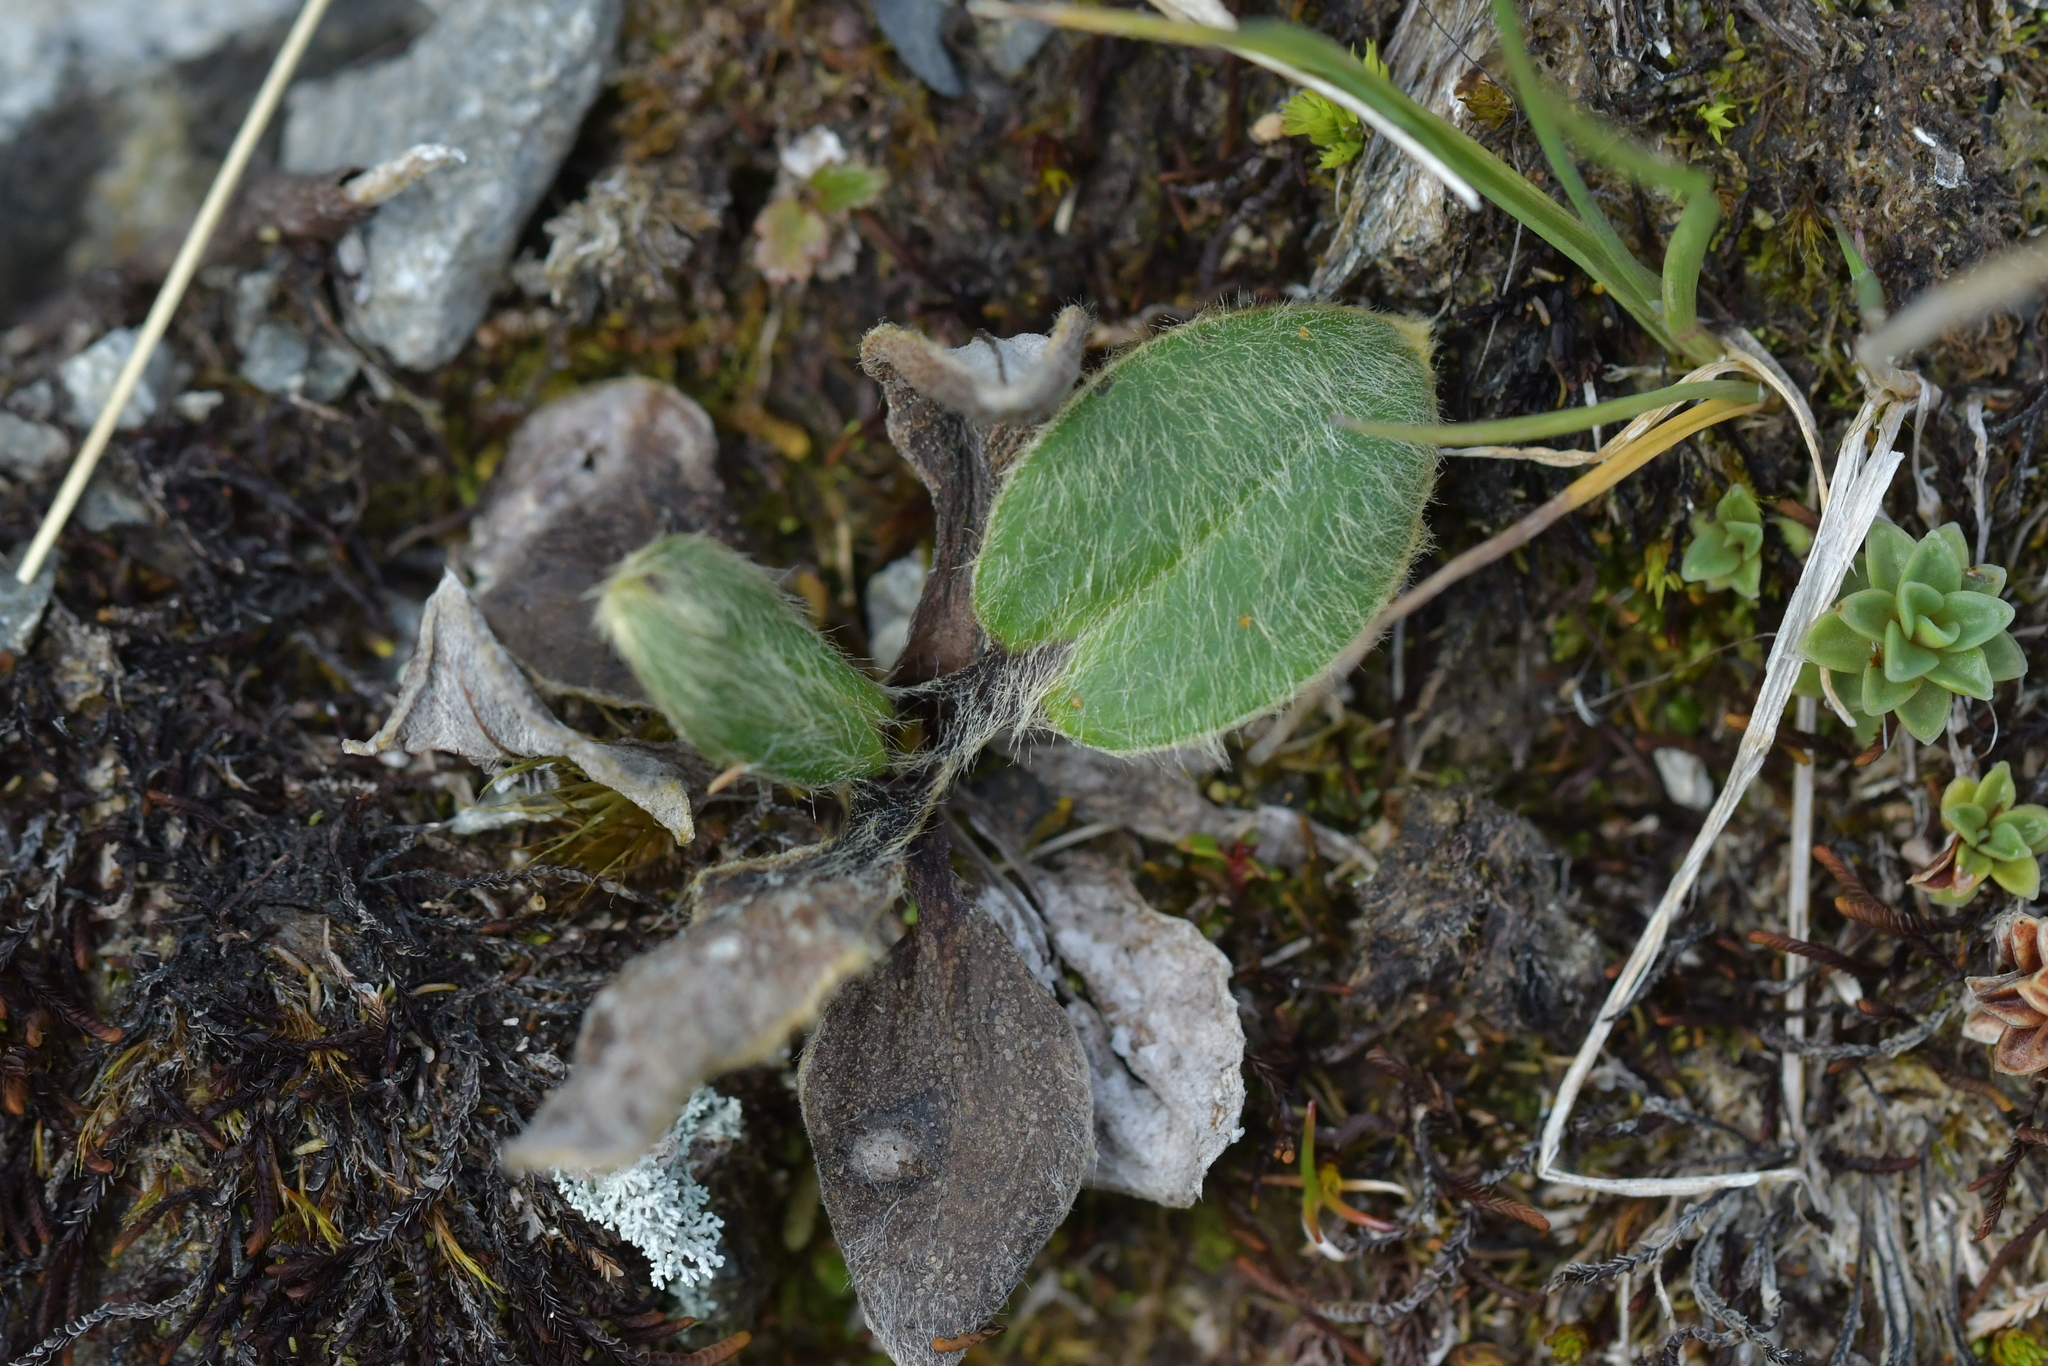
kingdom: Plantae
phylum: Tracheophyta
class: Magnoliopsida
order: Asterales
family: Asteraceae
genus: Celmisia
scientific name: Celmisia verbascifolia
